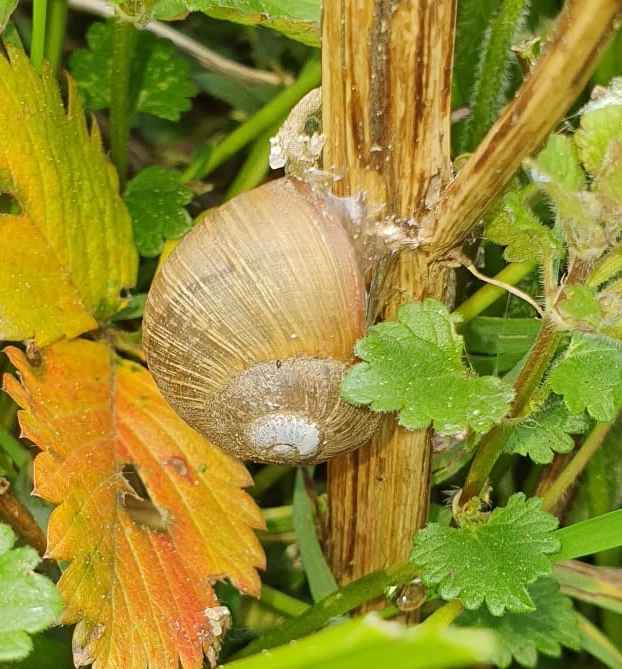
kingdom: Animalia
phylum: Mollusca
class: Gastropoda
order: Stylommatophora
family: Helicidae
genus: Helix
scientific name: Helix pomatia
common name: Roman snail
